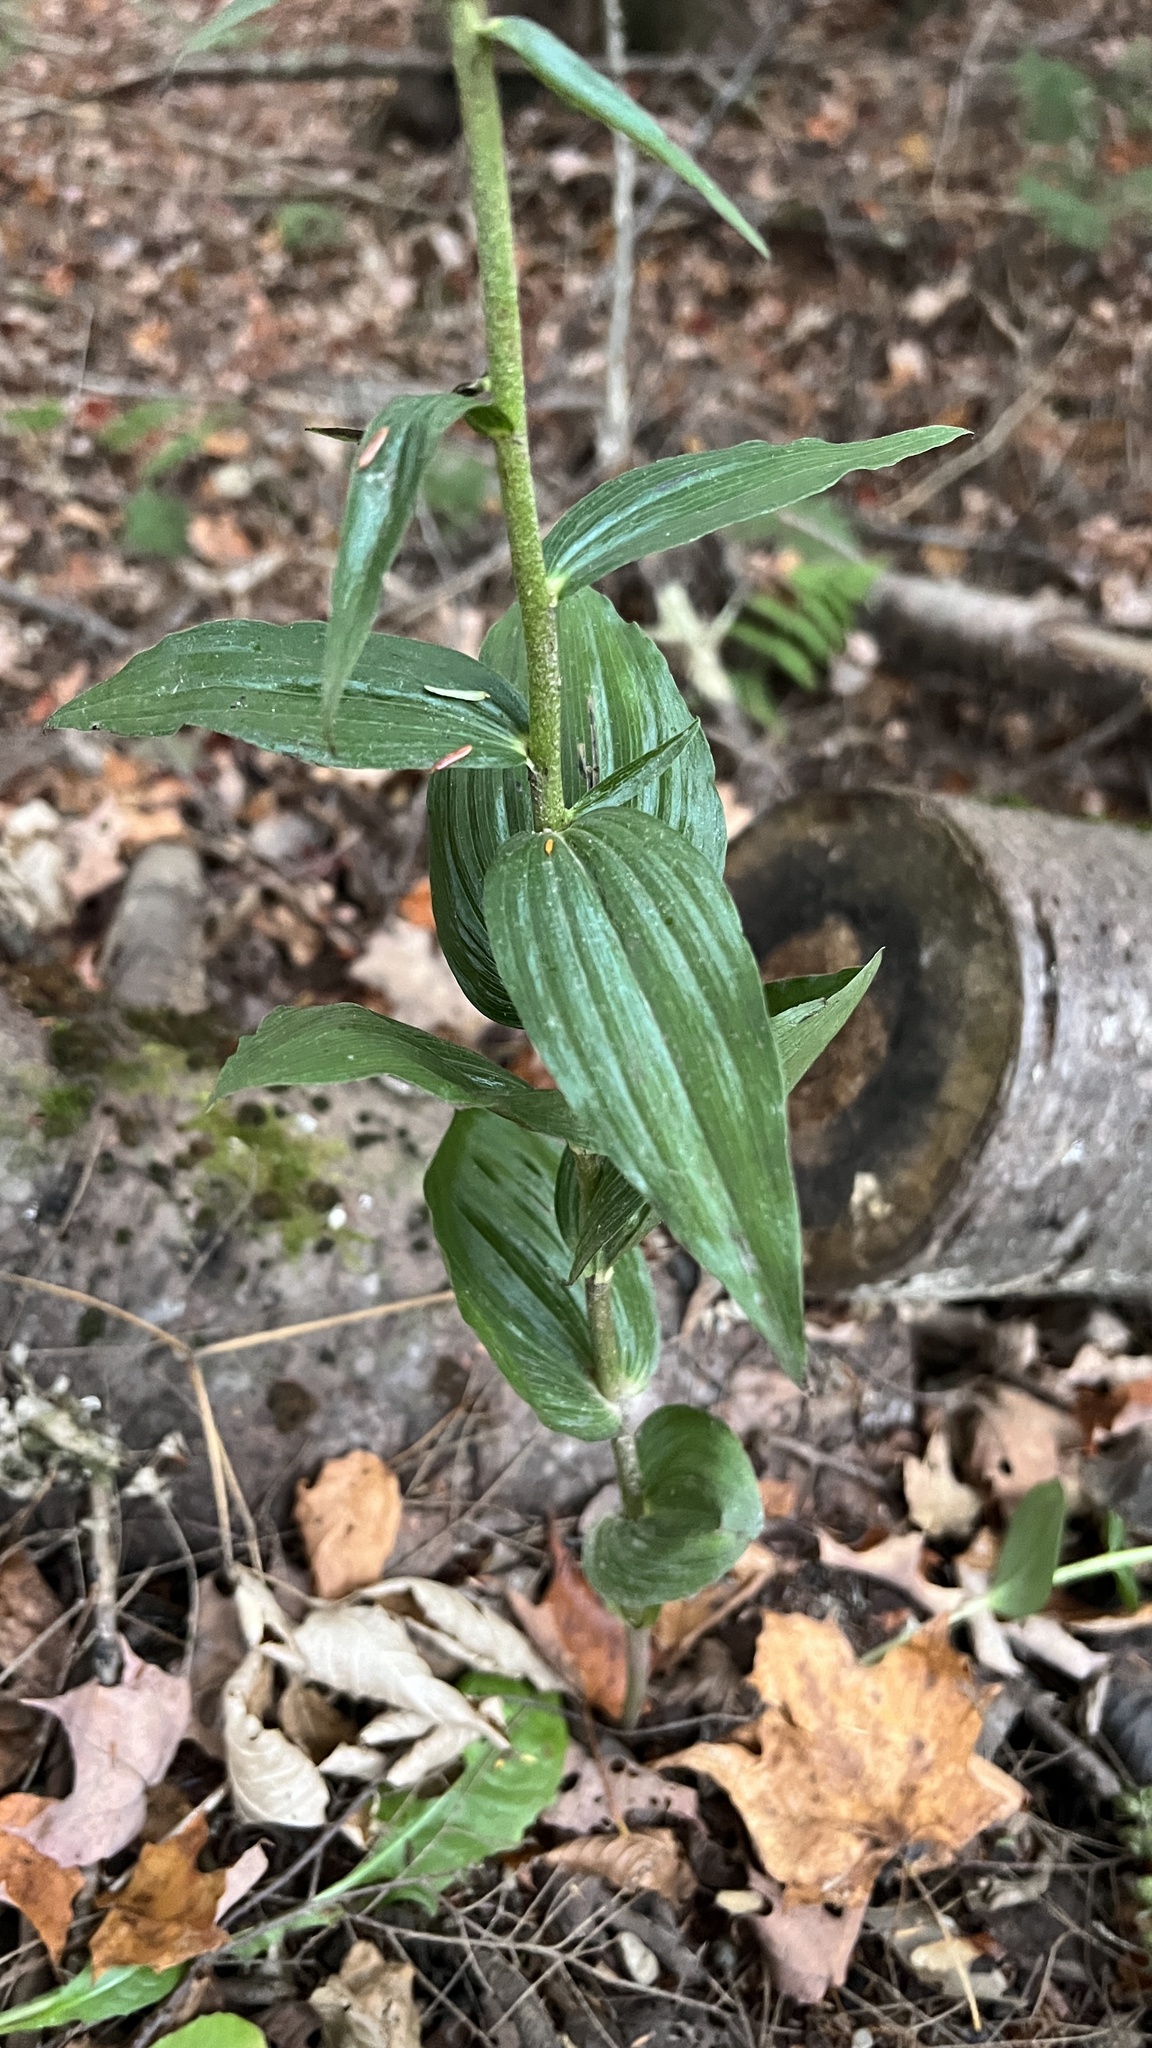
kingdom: Plantae
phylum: Tracheophyta
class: Liliopsida
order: Asparagales
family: Orchidaceae
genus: Epipactis
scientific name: Epipactis helleborine
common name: Broad-leaved helleborine
